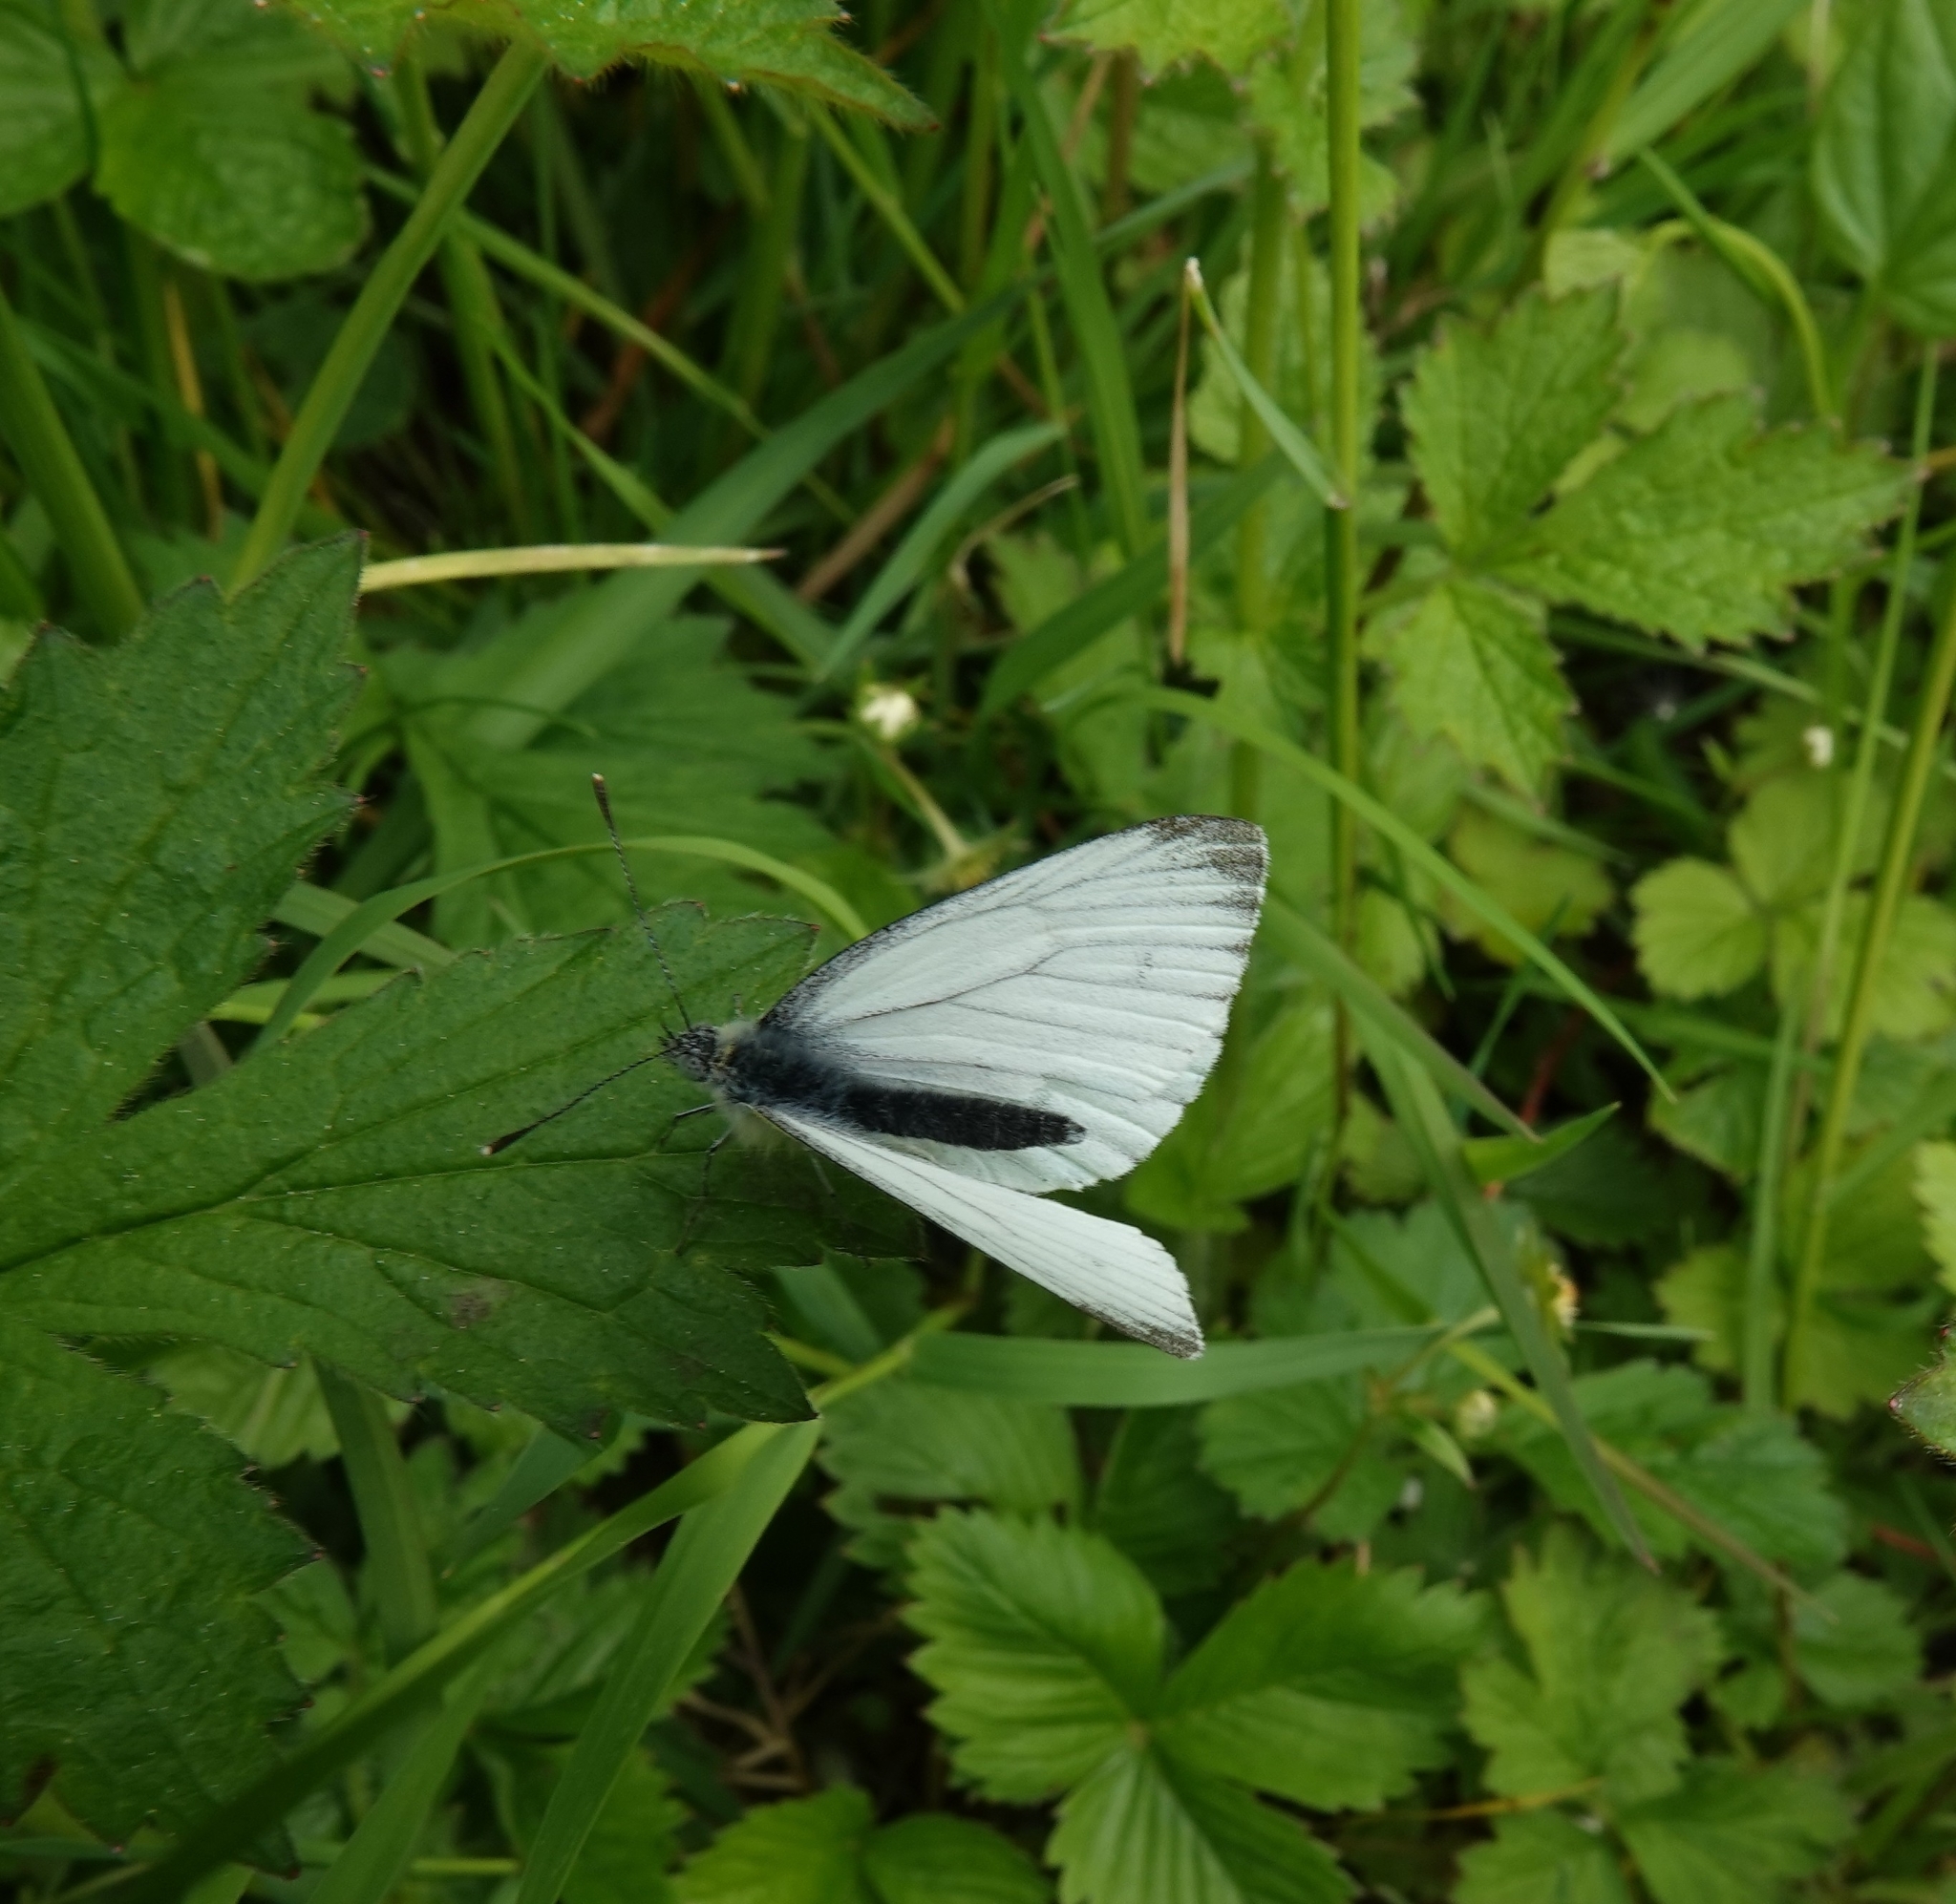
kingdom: Animalia
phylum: Arthropoda
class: Insecta
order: Lepidoptera
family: Pieridae
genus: Pieris
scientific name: Pieris napi
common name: Green-veined white
